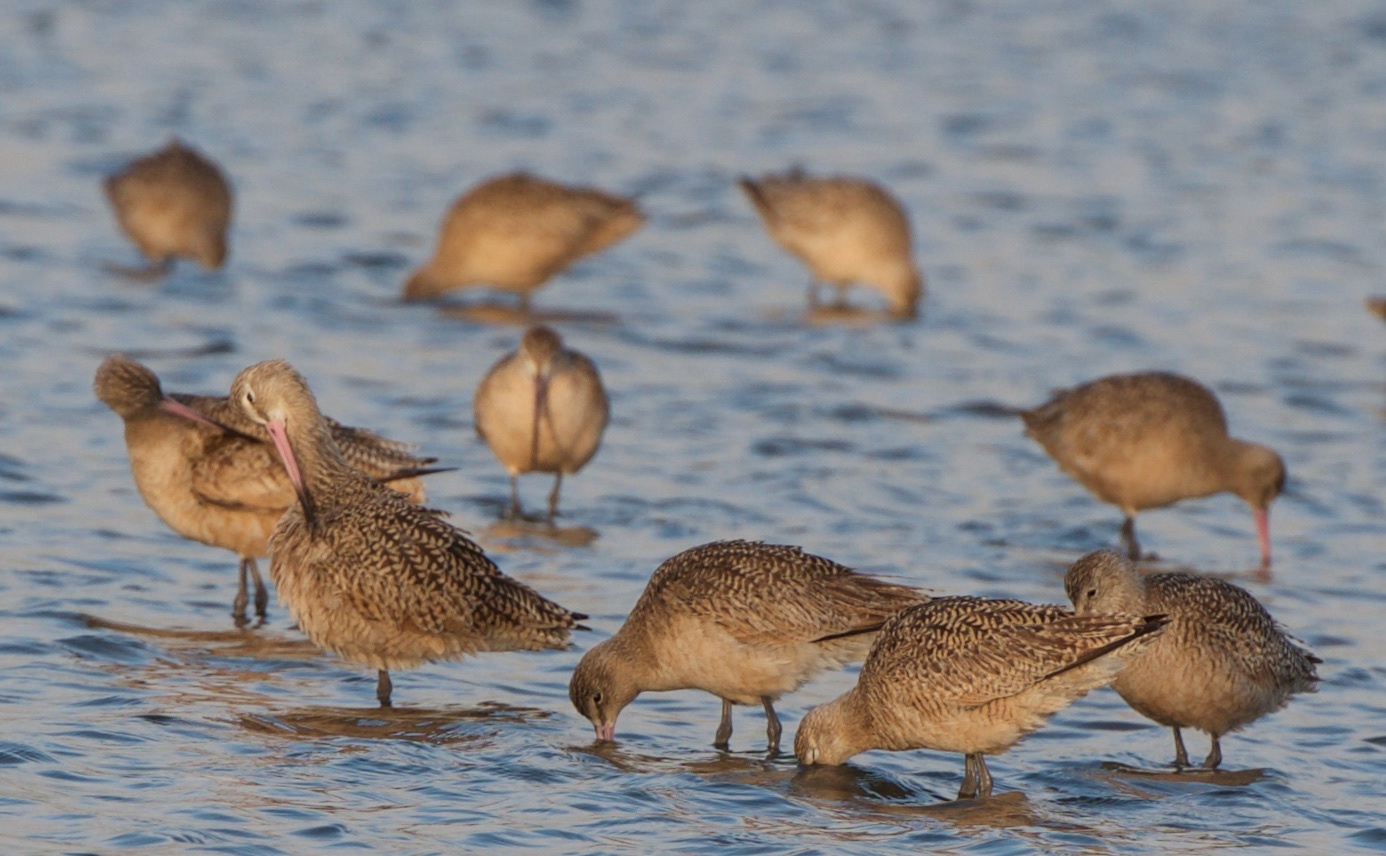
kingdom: Animalia
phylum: Chordata
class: Aves
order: Charadriiformes
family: Scolopacidae
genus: Limosa
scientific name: Limosa fedoa
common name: Marbled godwit
